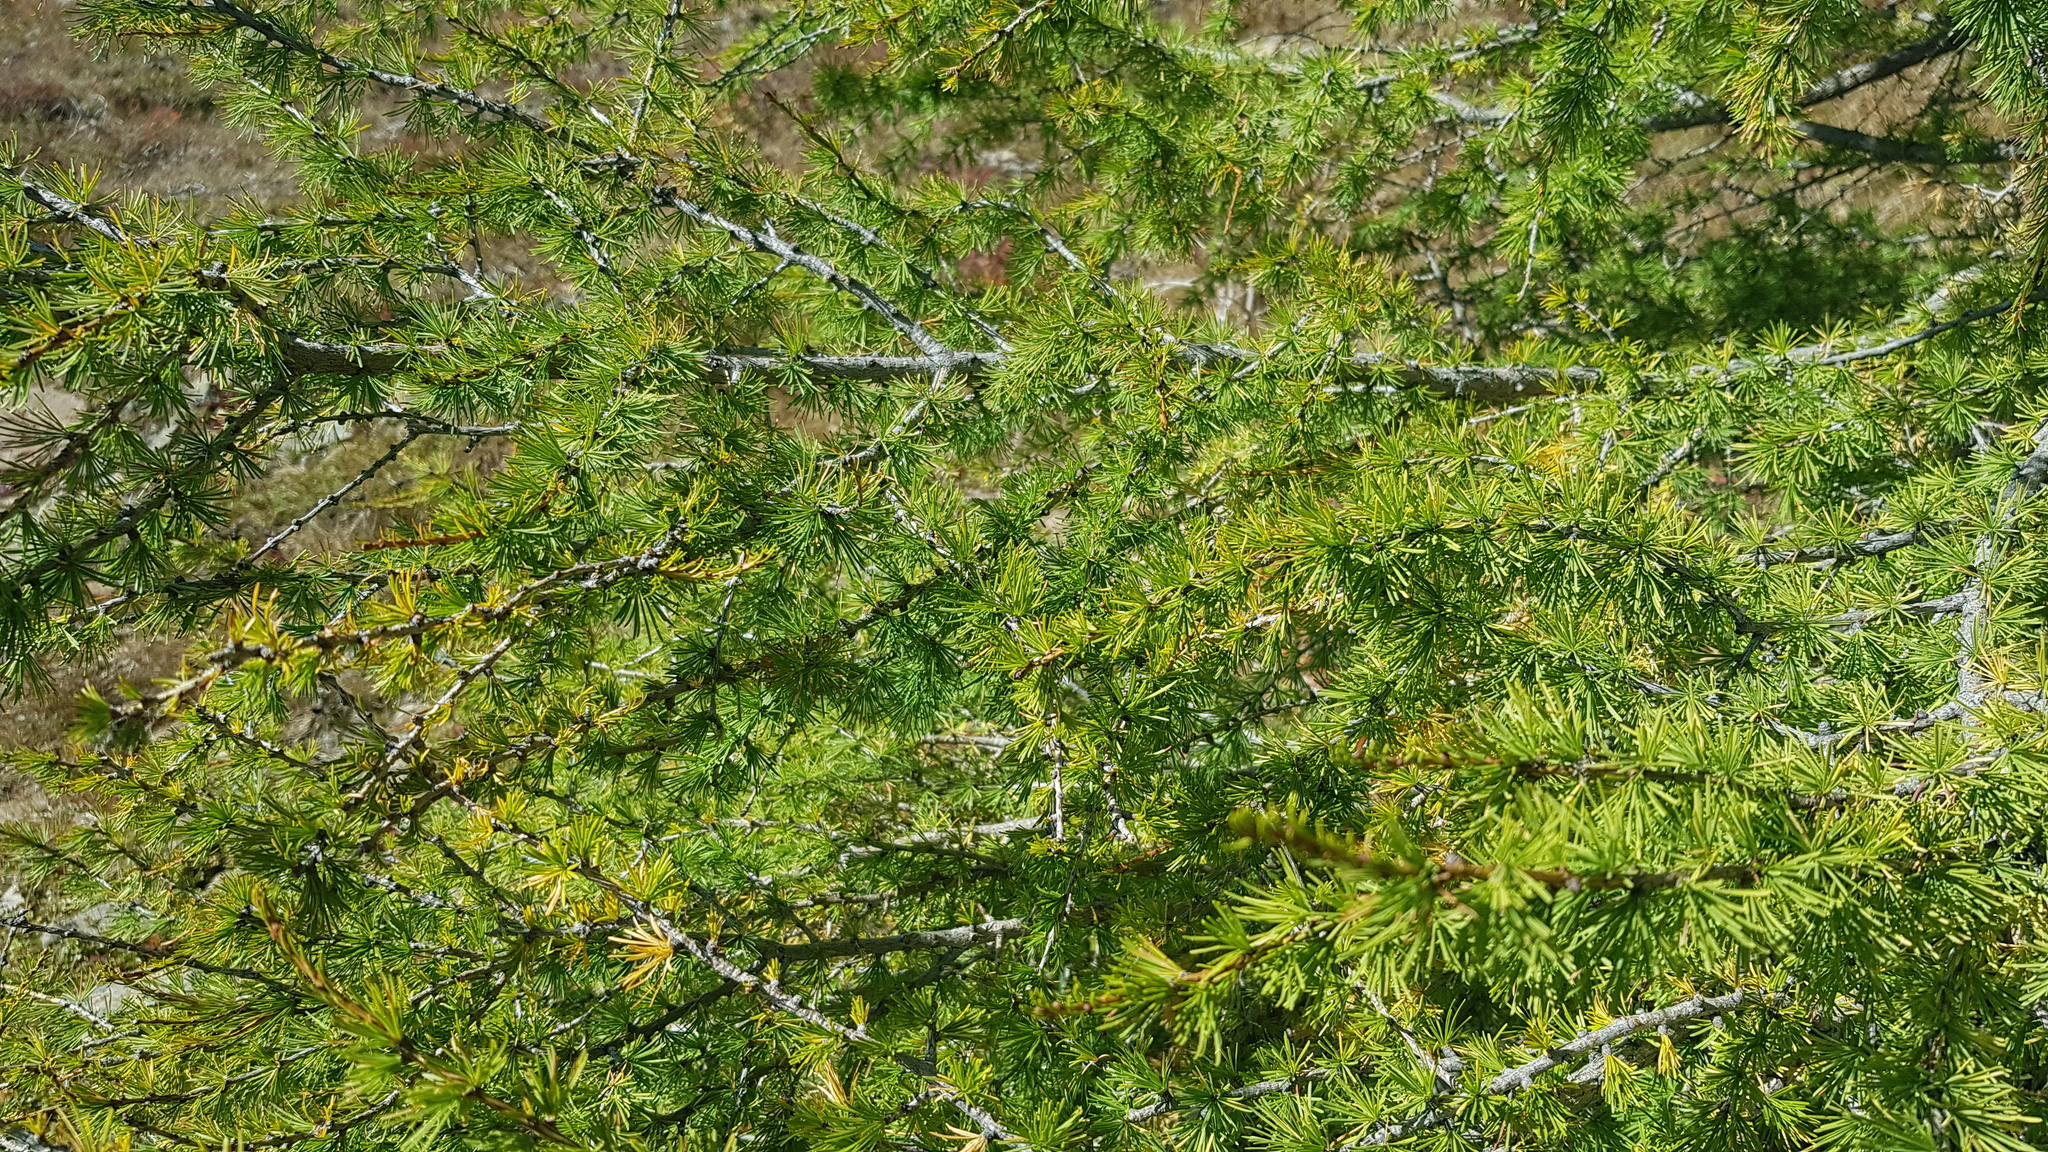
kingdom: Plantae
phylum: Tracheophyta
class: Pinopsida
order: Pinales
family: Pinaceae
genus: Larix
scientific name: Larix sibirica
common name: Siberian larch
